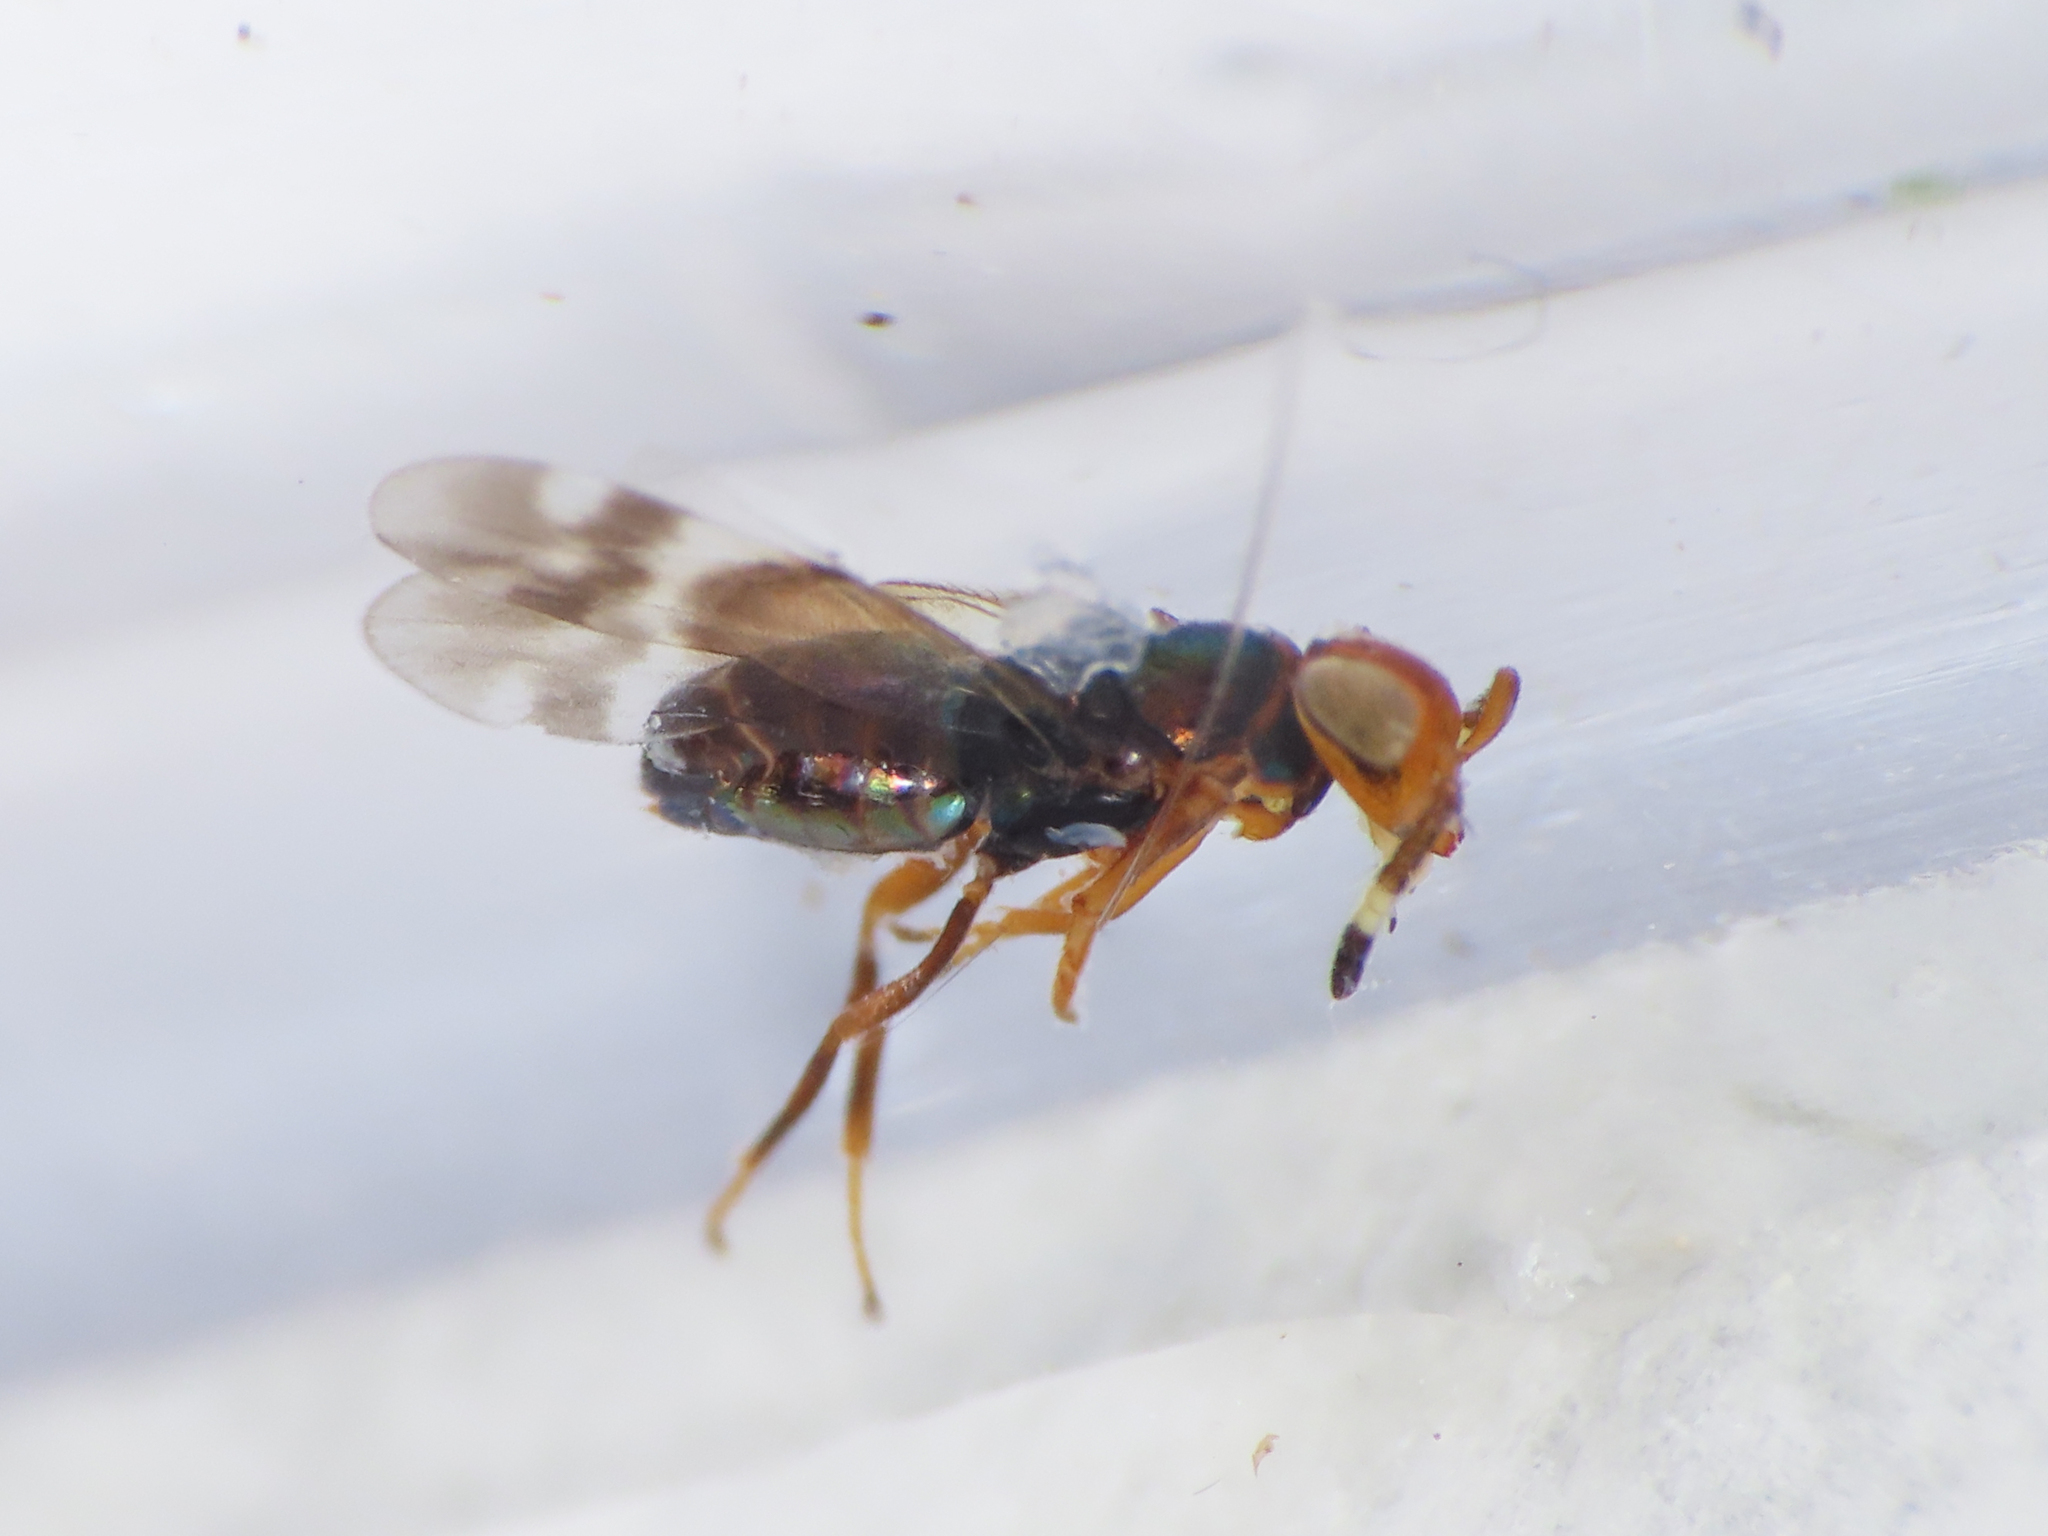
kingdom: Animalia
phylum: Arthropoda
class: Insecta
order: Hymenoptera
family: Encyrtidae
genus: Blastothrix
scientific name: Blastothrix brittanica
